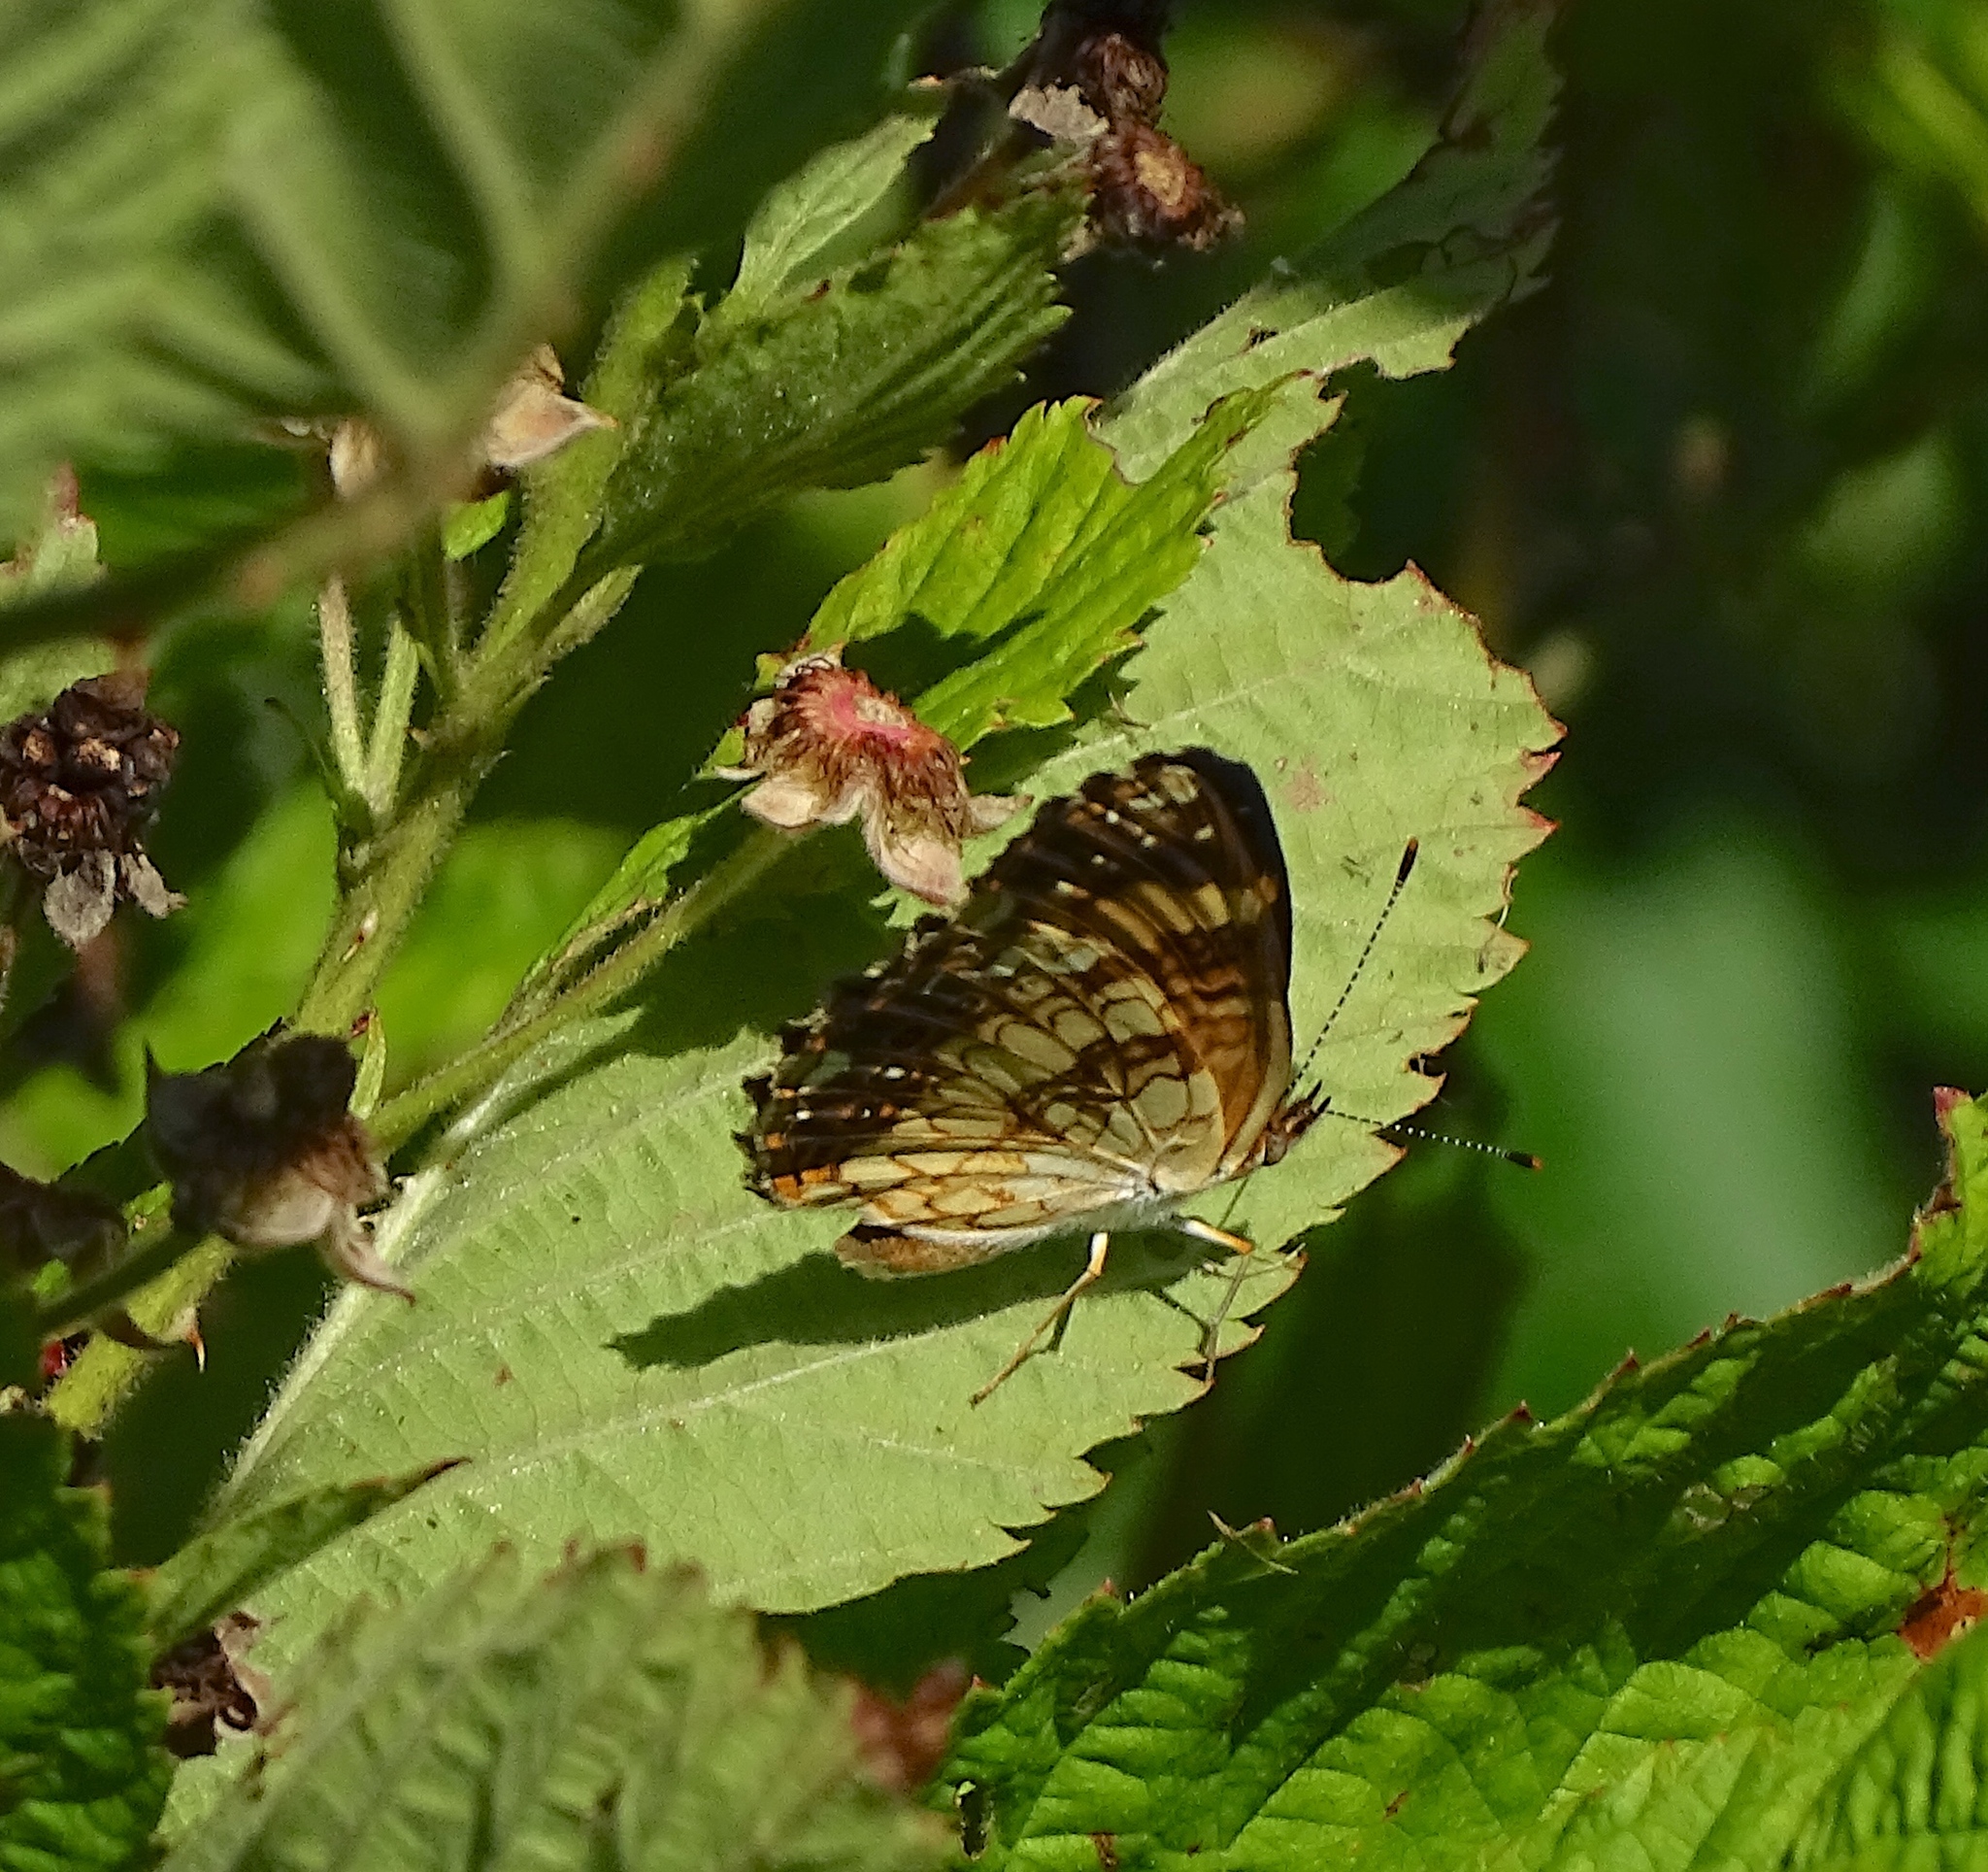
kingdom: Animalia
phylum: Arthropoda
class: Insecta
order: Lepidoptera
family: Nymphalidae
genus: Chlosyne
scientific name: Chlosyne nycteis
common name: Silvery checkerspot
